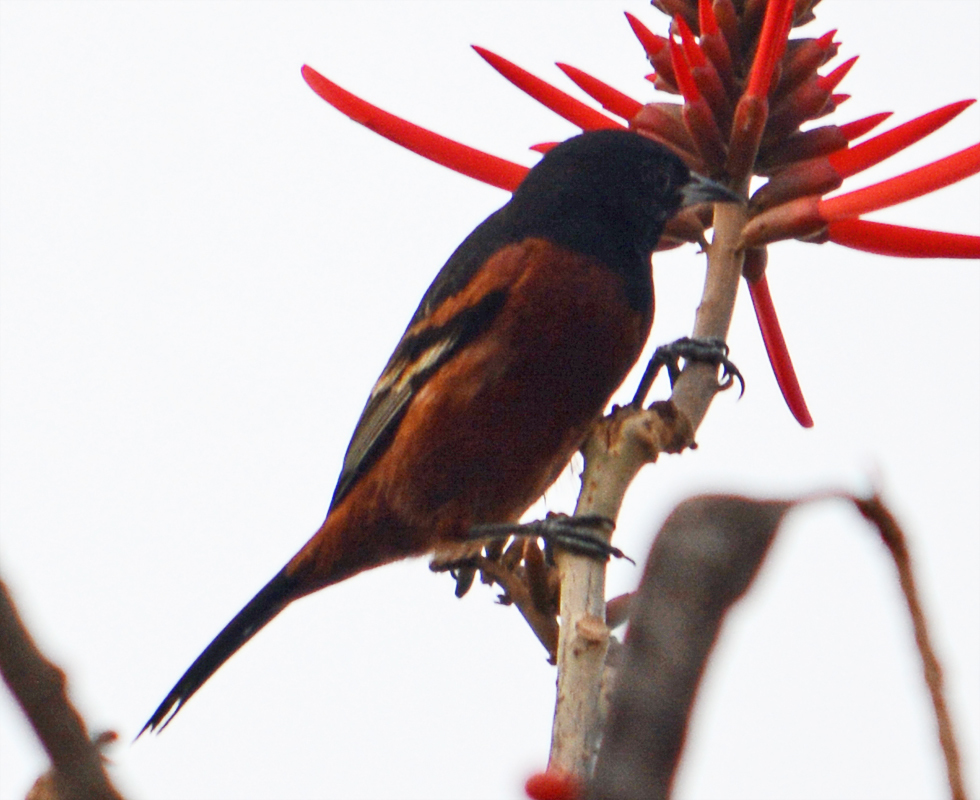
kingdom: Animalia
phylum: Chordata
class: Aves
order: Passeriformes
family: Icteridae
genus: Icterus
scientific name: Icterus spurius
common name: Orchard oriole
